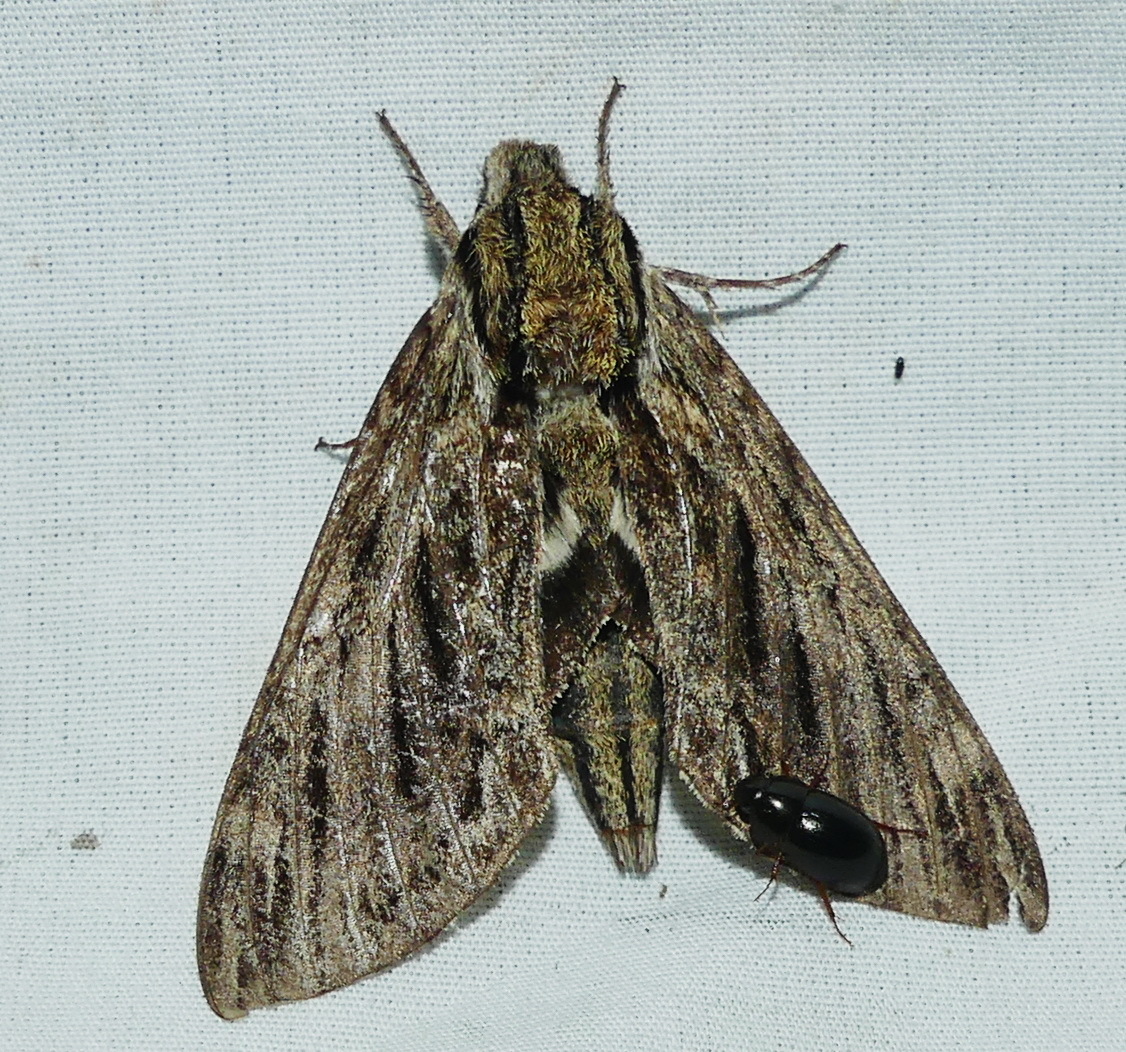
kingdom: Animalia
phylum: Arthropoda
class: Insecta
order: Lepidoptera
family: Sphingidae
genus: Lintneria
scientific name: Lintneria eremitus
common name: Hermit sphinx
